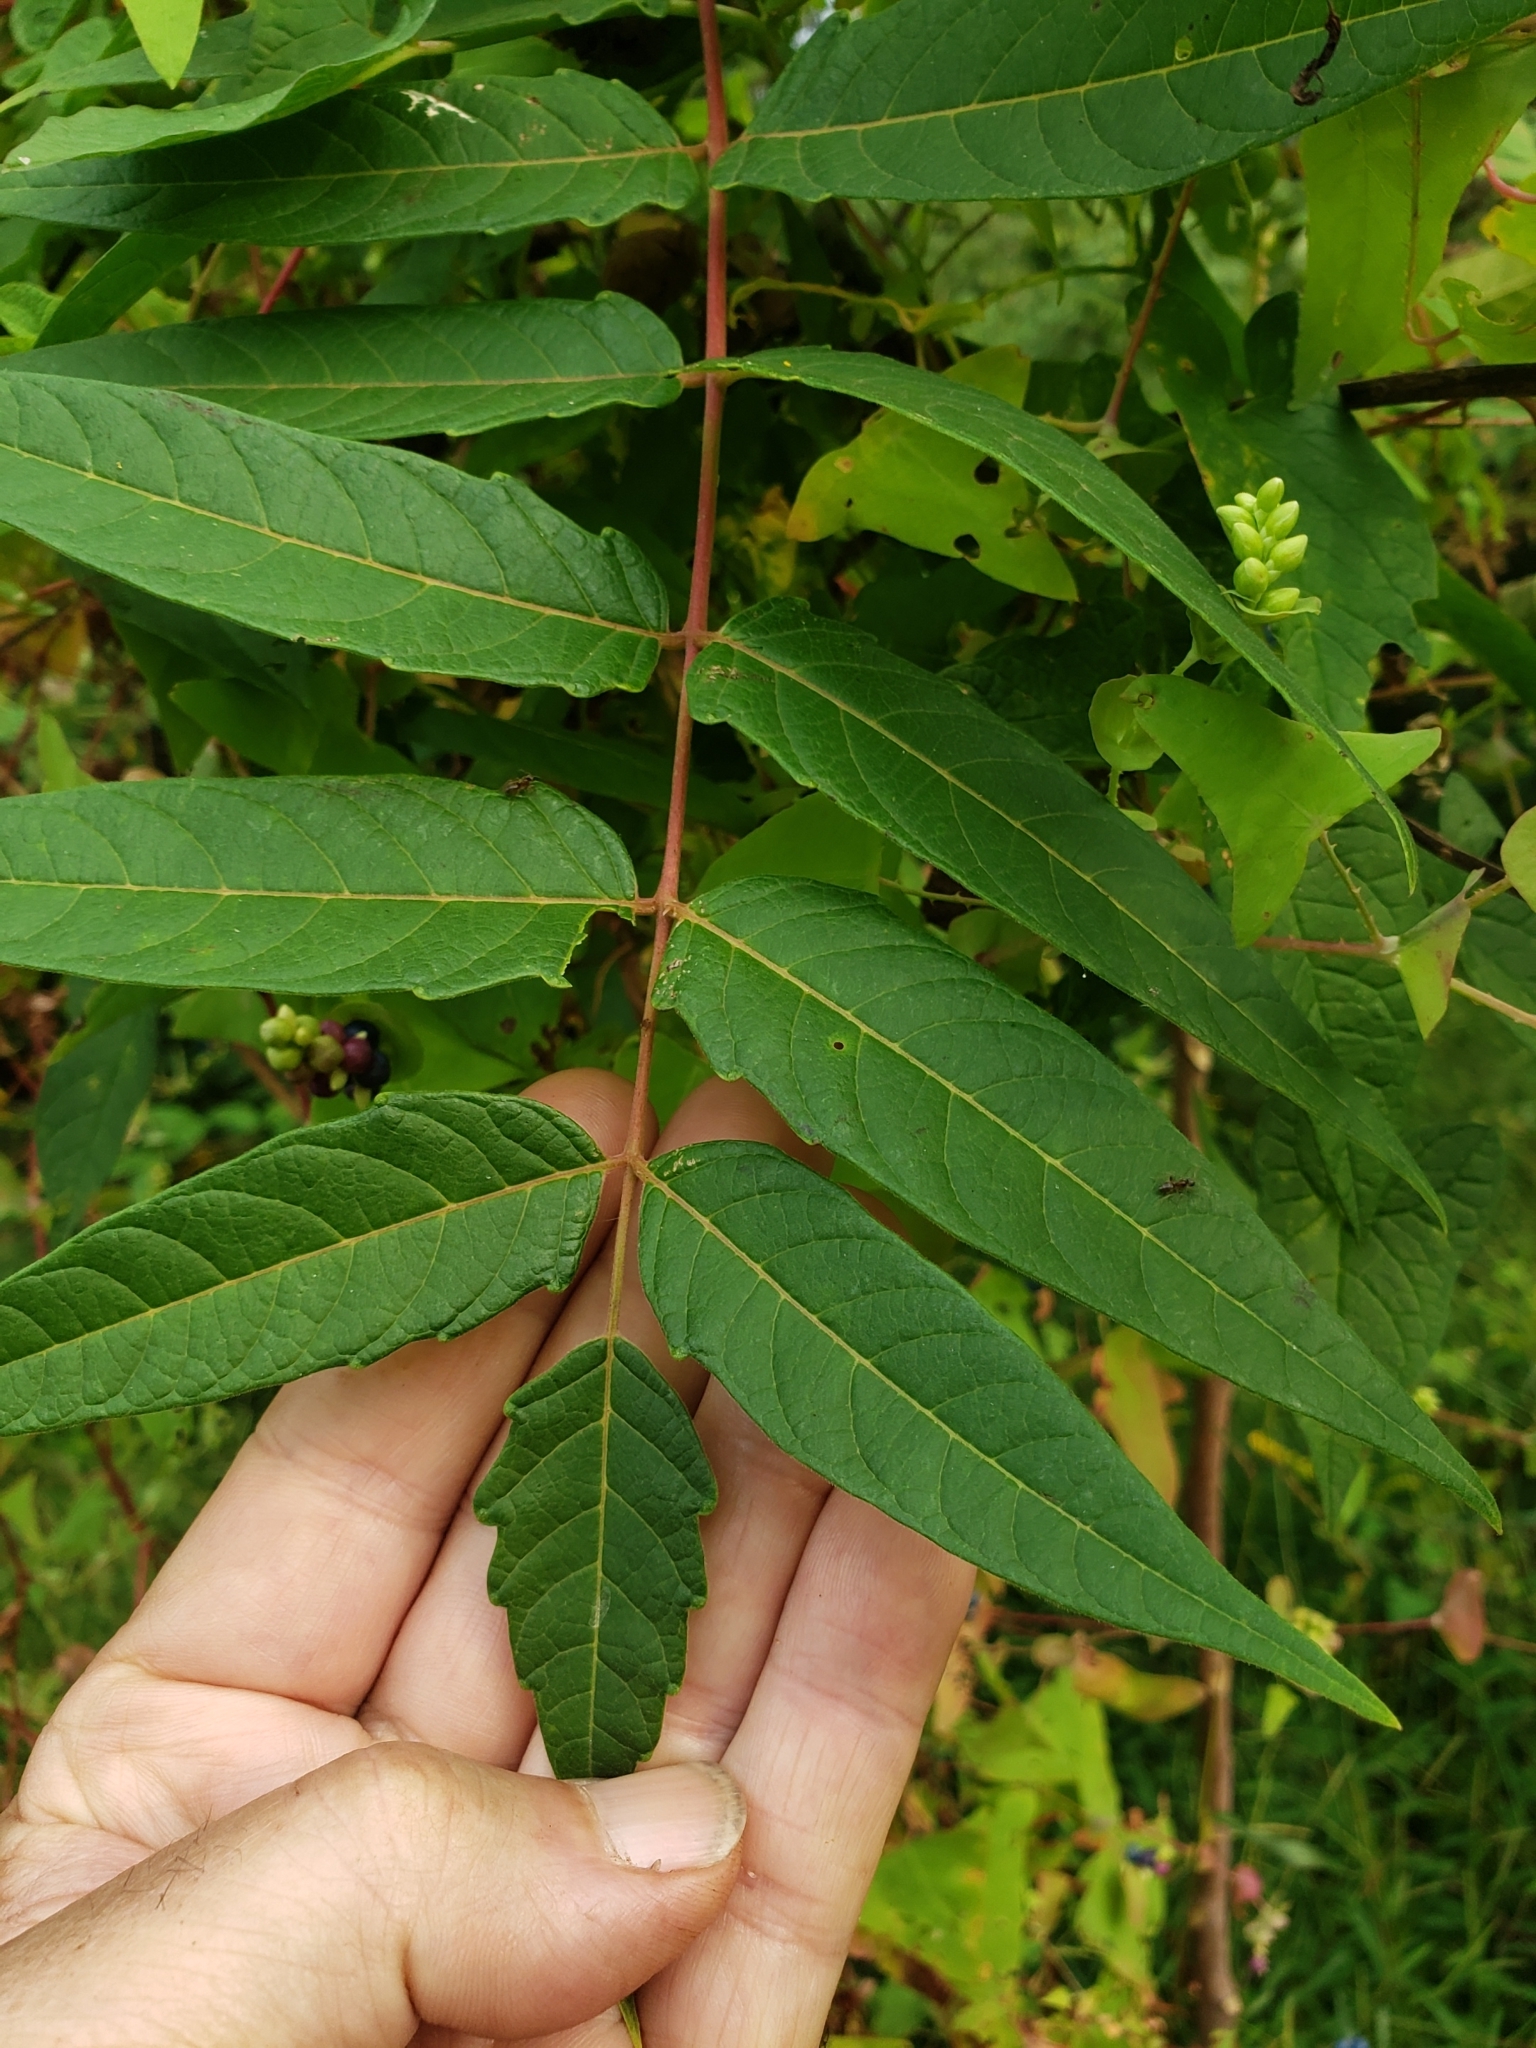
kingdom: Plantae
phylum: Tracheophyta
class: Magnoliopsida
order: Sapindales
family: Simaroubaceae
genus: Ailanthus
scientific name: Ailanthus altissima
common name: Tree-of-heaven
